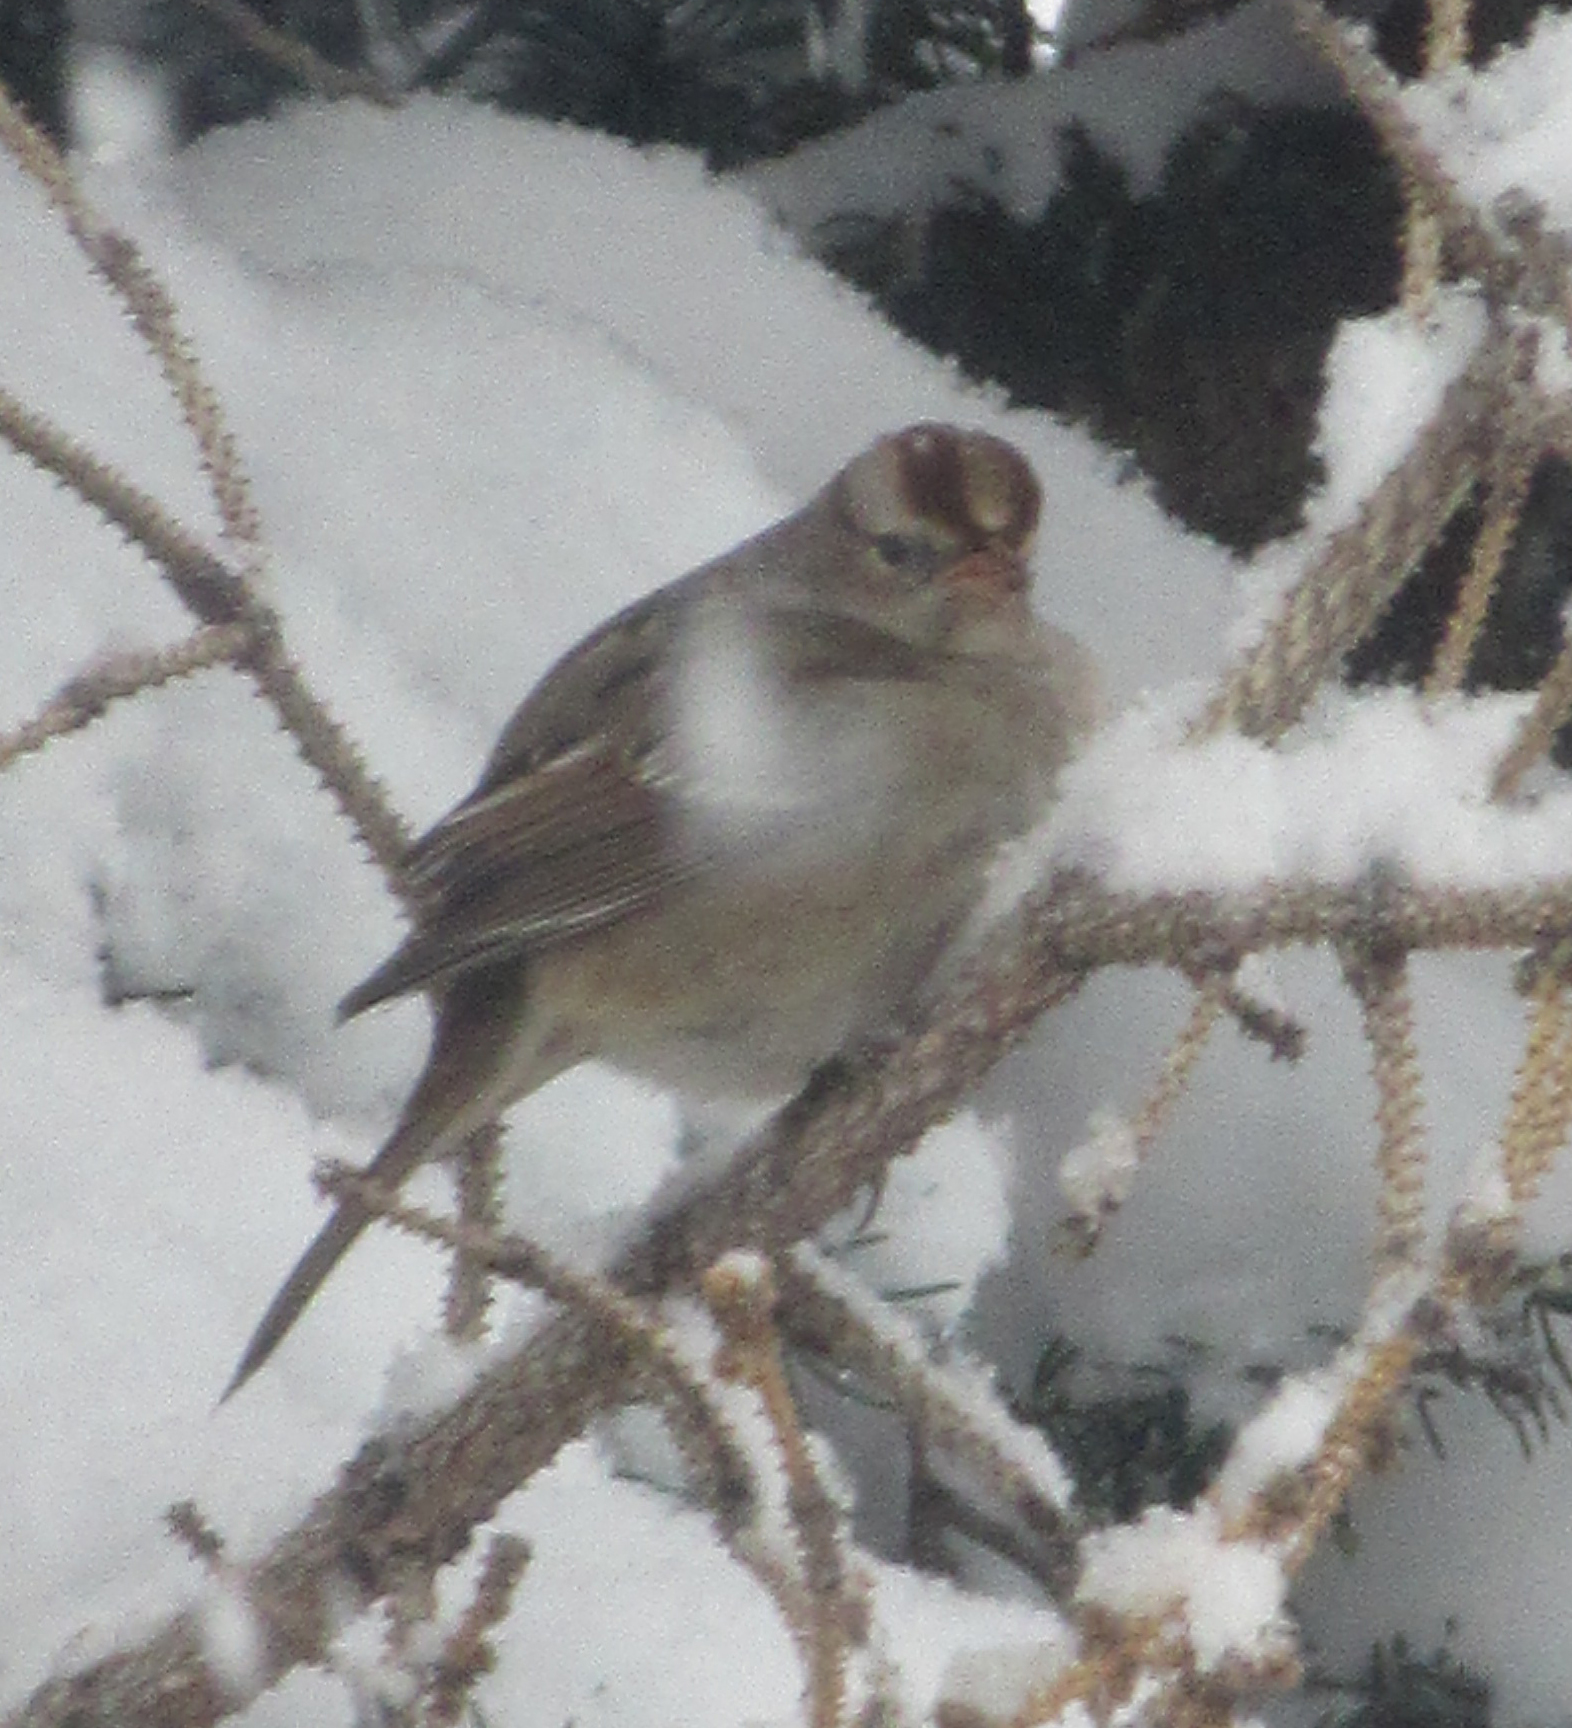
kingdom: Animalia
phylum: Chordata
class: Aves
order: Passeriformes
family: Passerellidae
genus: Zonotrichia
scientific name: Zonotrichia leucophrys
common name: White-crowned sparrow
